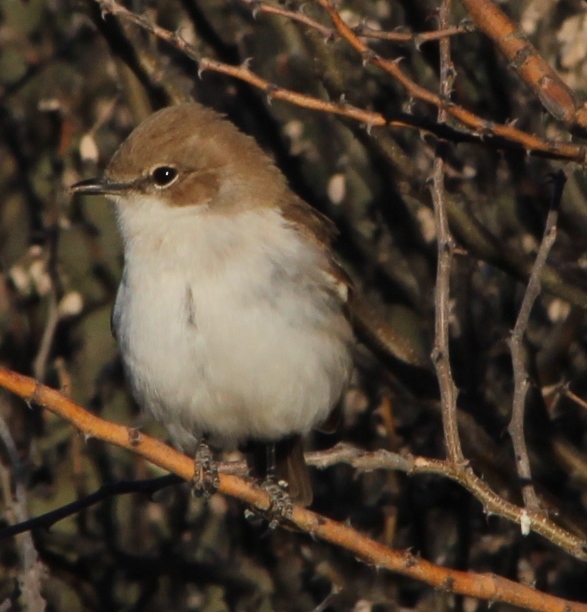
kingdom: Animalia
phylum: Chordata
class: Aves
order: Passeriformes
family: Muscicapidae
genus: Bradornis
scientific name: Bradornis mariquensis
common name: Marico flycatcher
